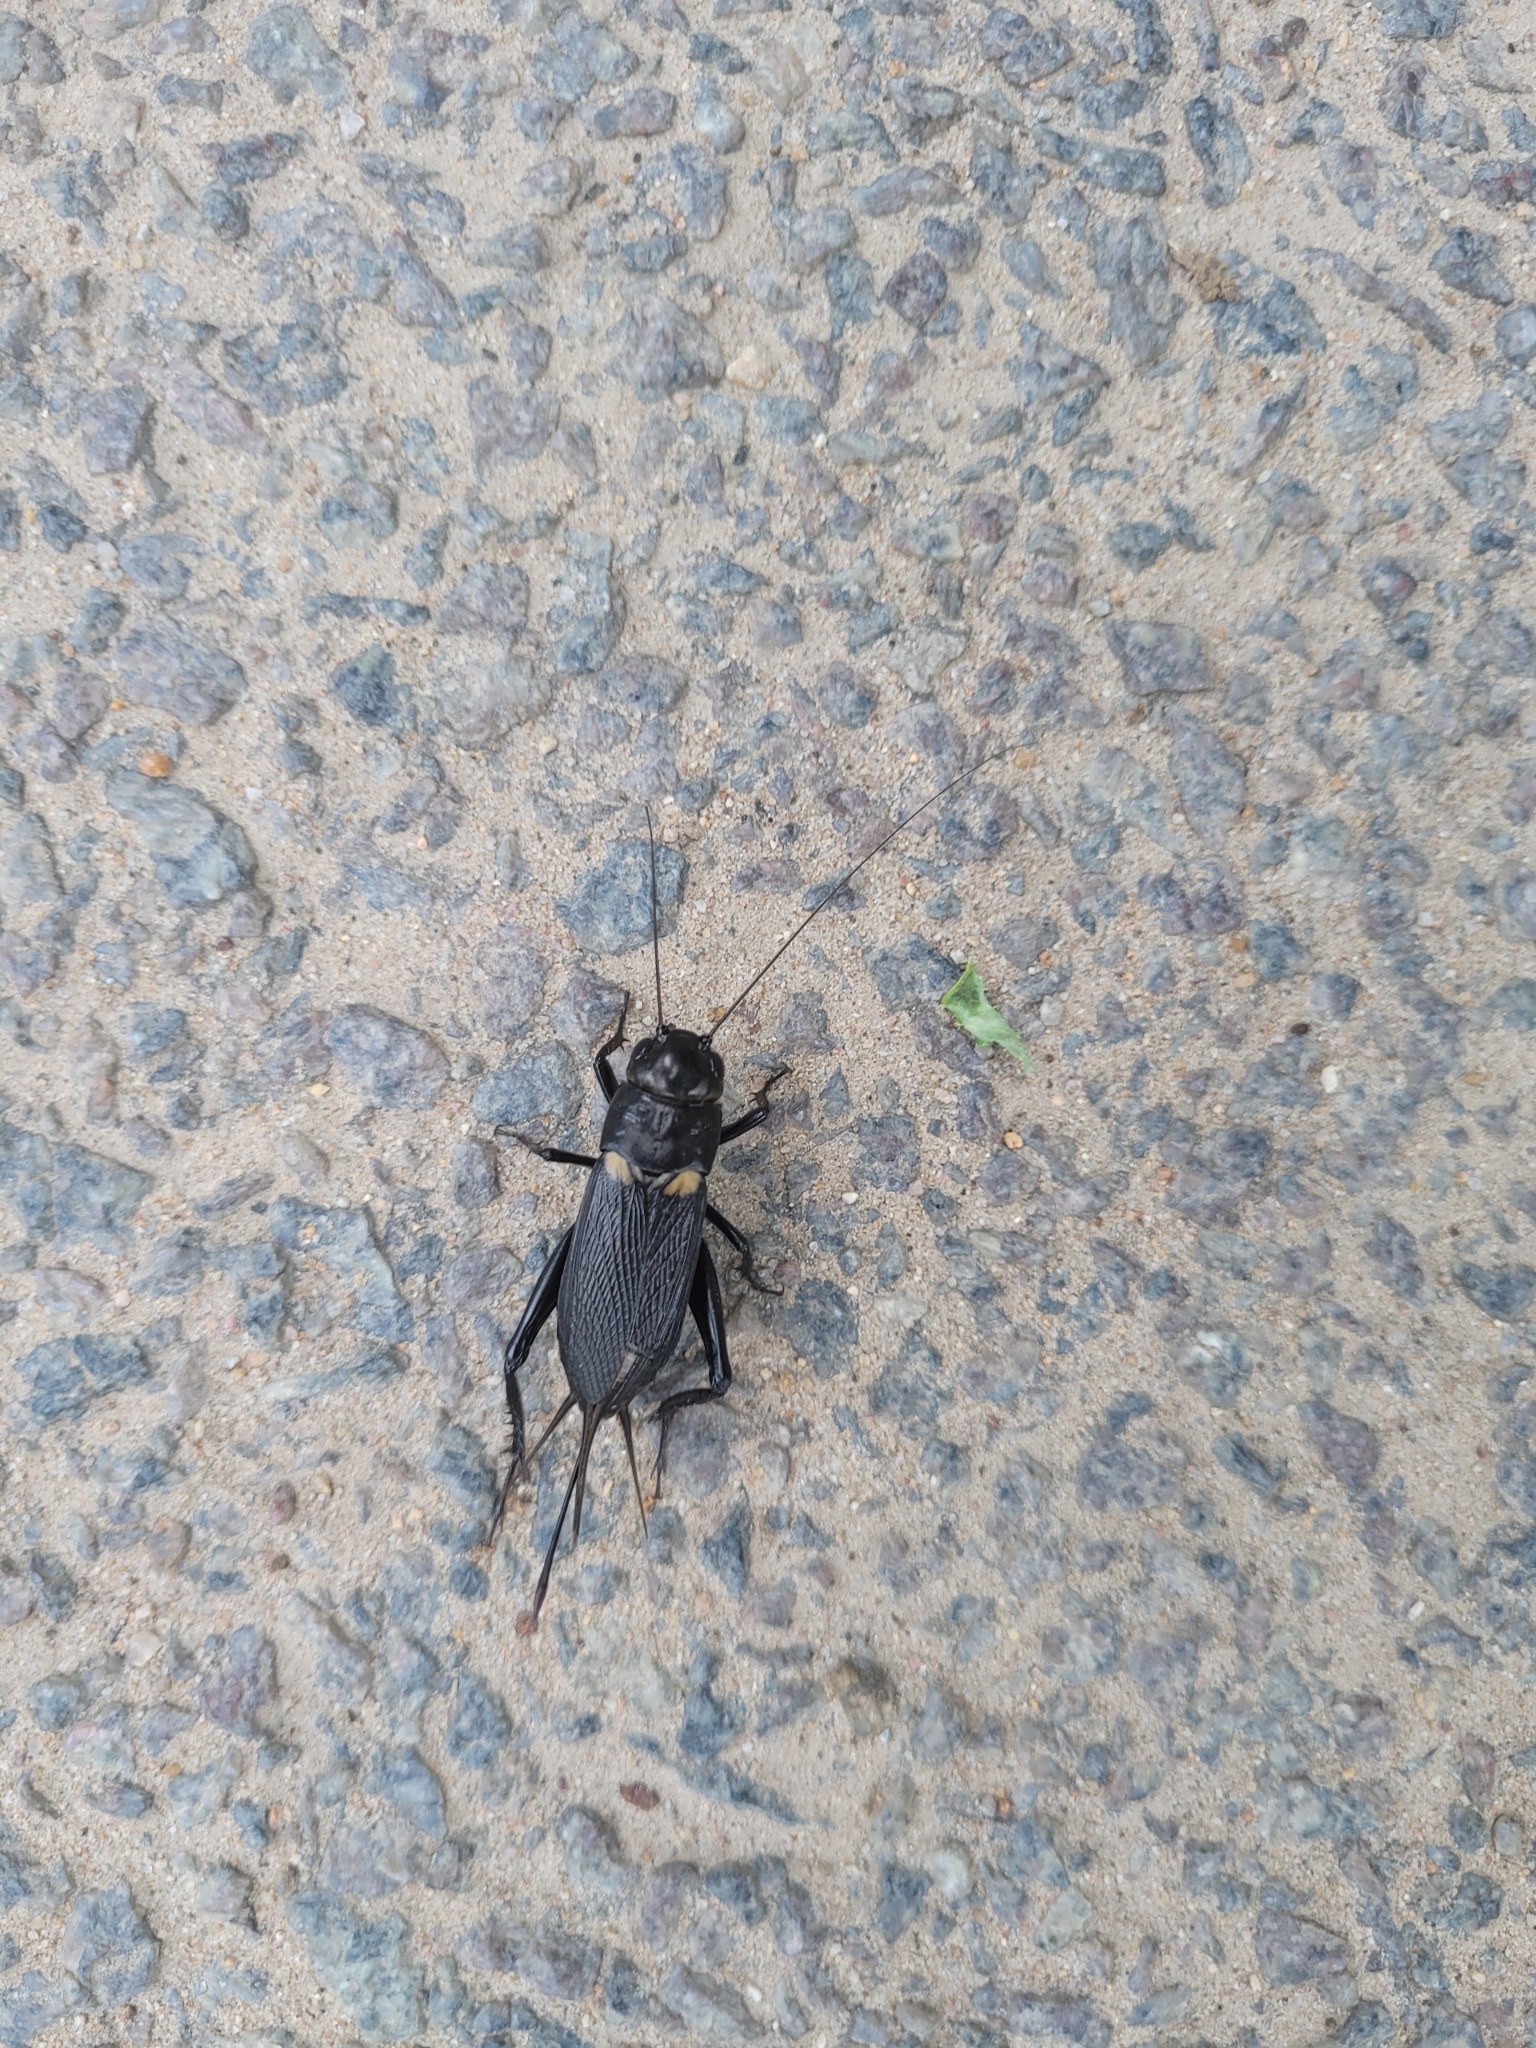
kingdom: Animalia
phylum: Arthropoda
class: Insecta
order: Orthoptera
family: Gryllidae
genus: Gryllus
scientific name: Gryllus bimaculatus
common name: Two-spotted cricket
